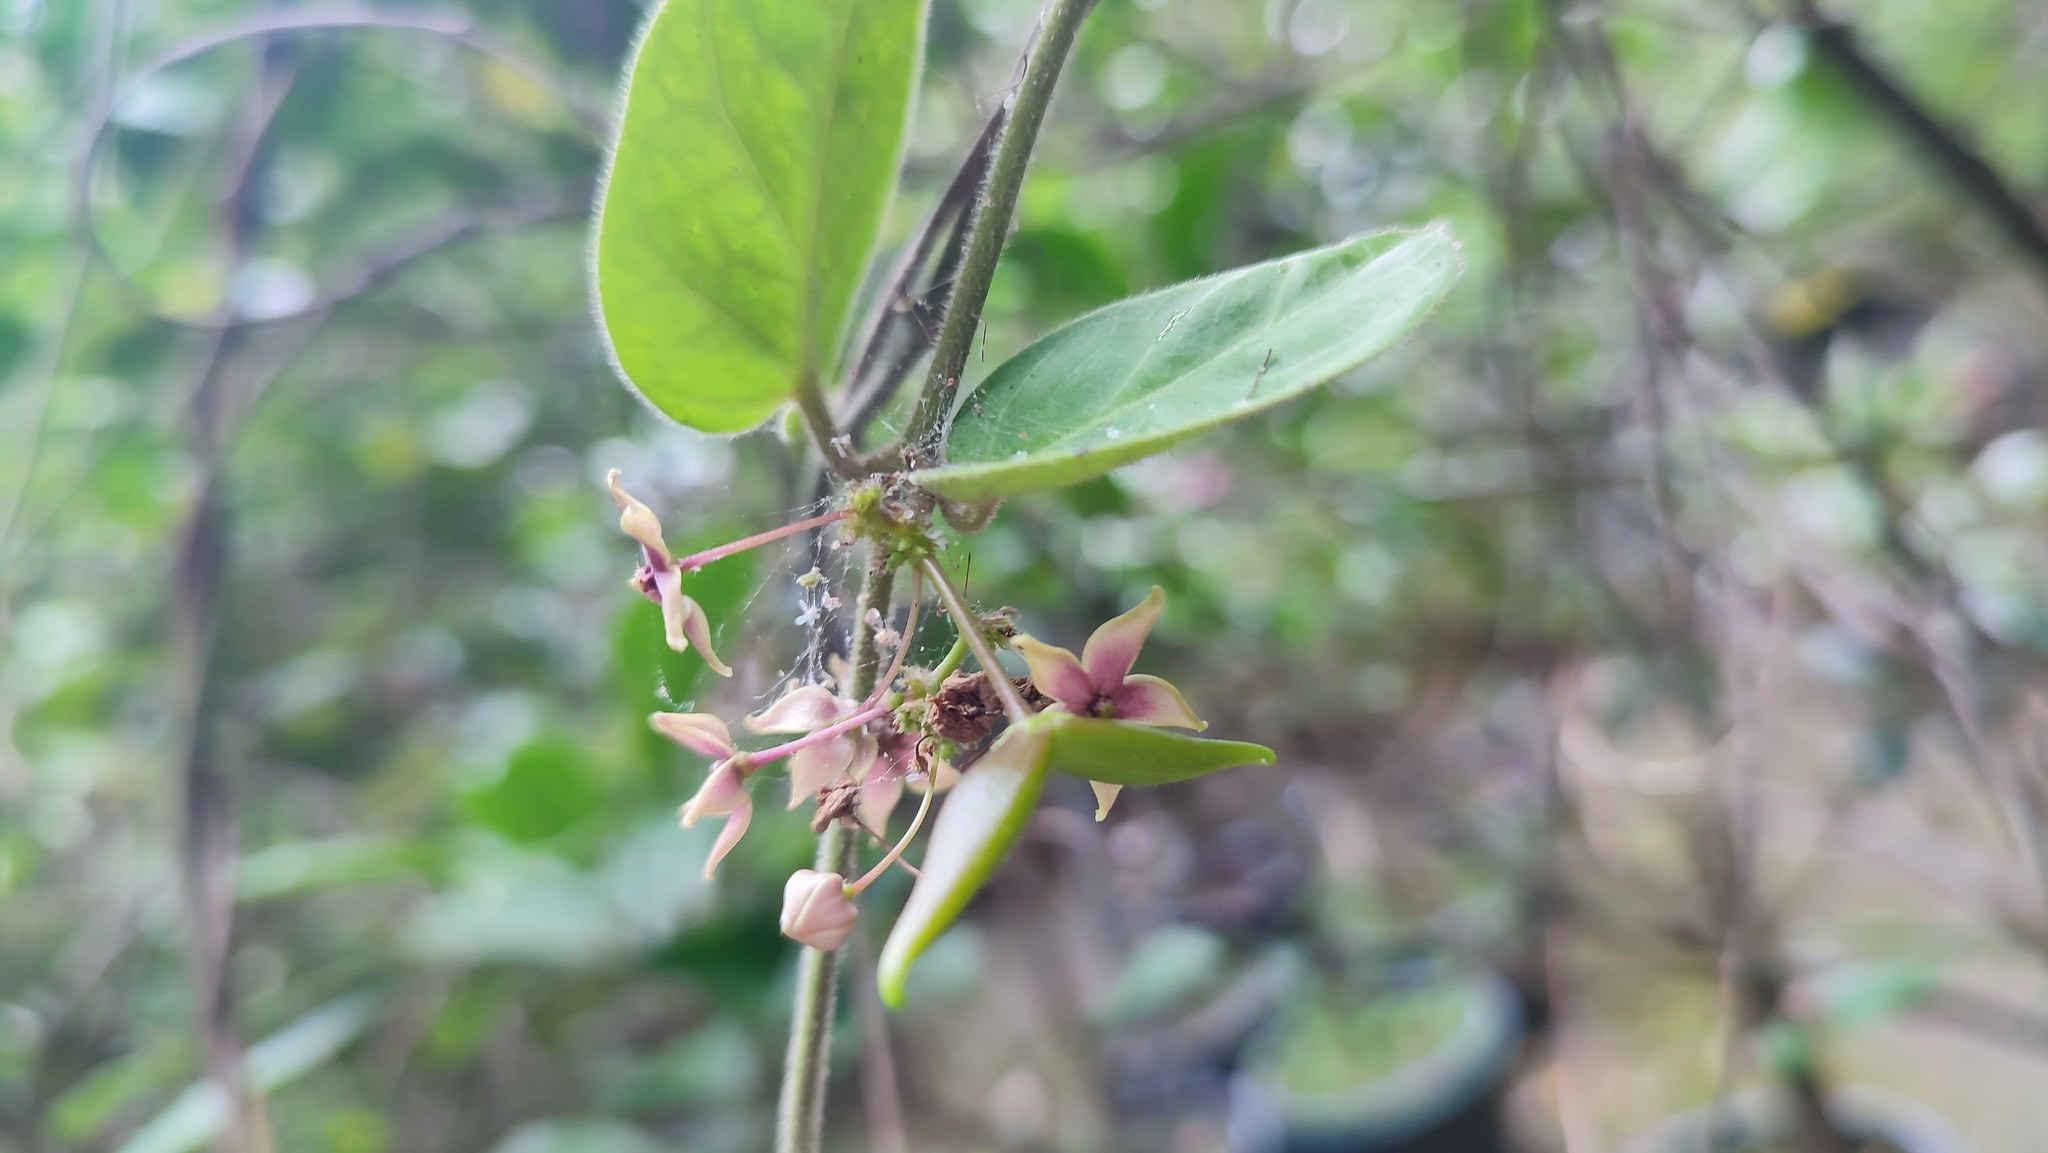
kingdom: Plantae
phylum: Tracheophyta
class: Magnoliopsida
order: Gentianales
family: Apocynaceae
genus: Vincetoxicum
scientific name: Vincetoxicum hirsutum
